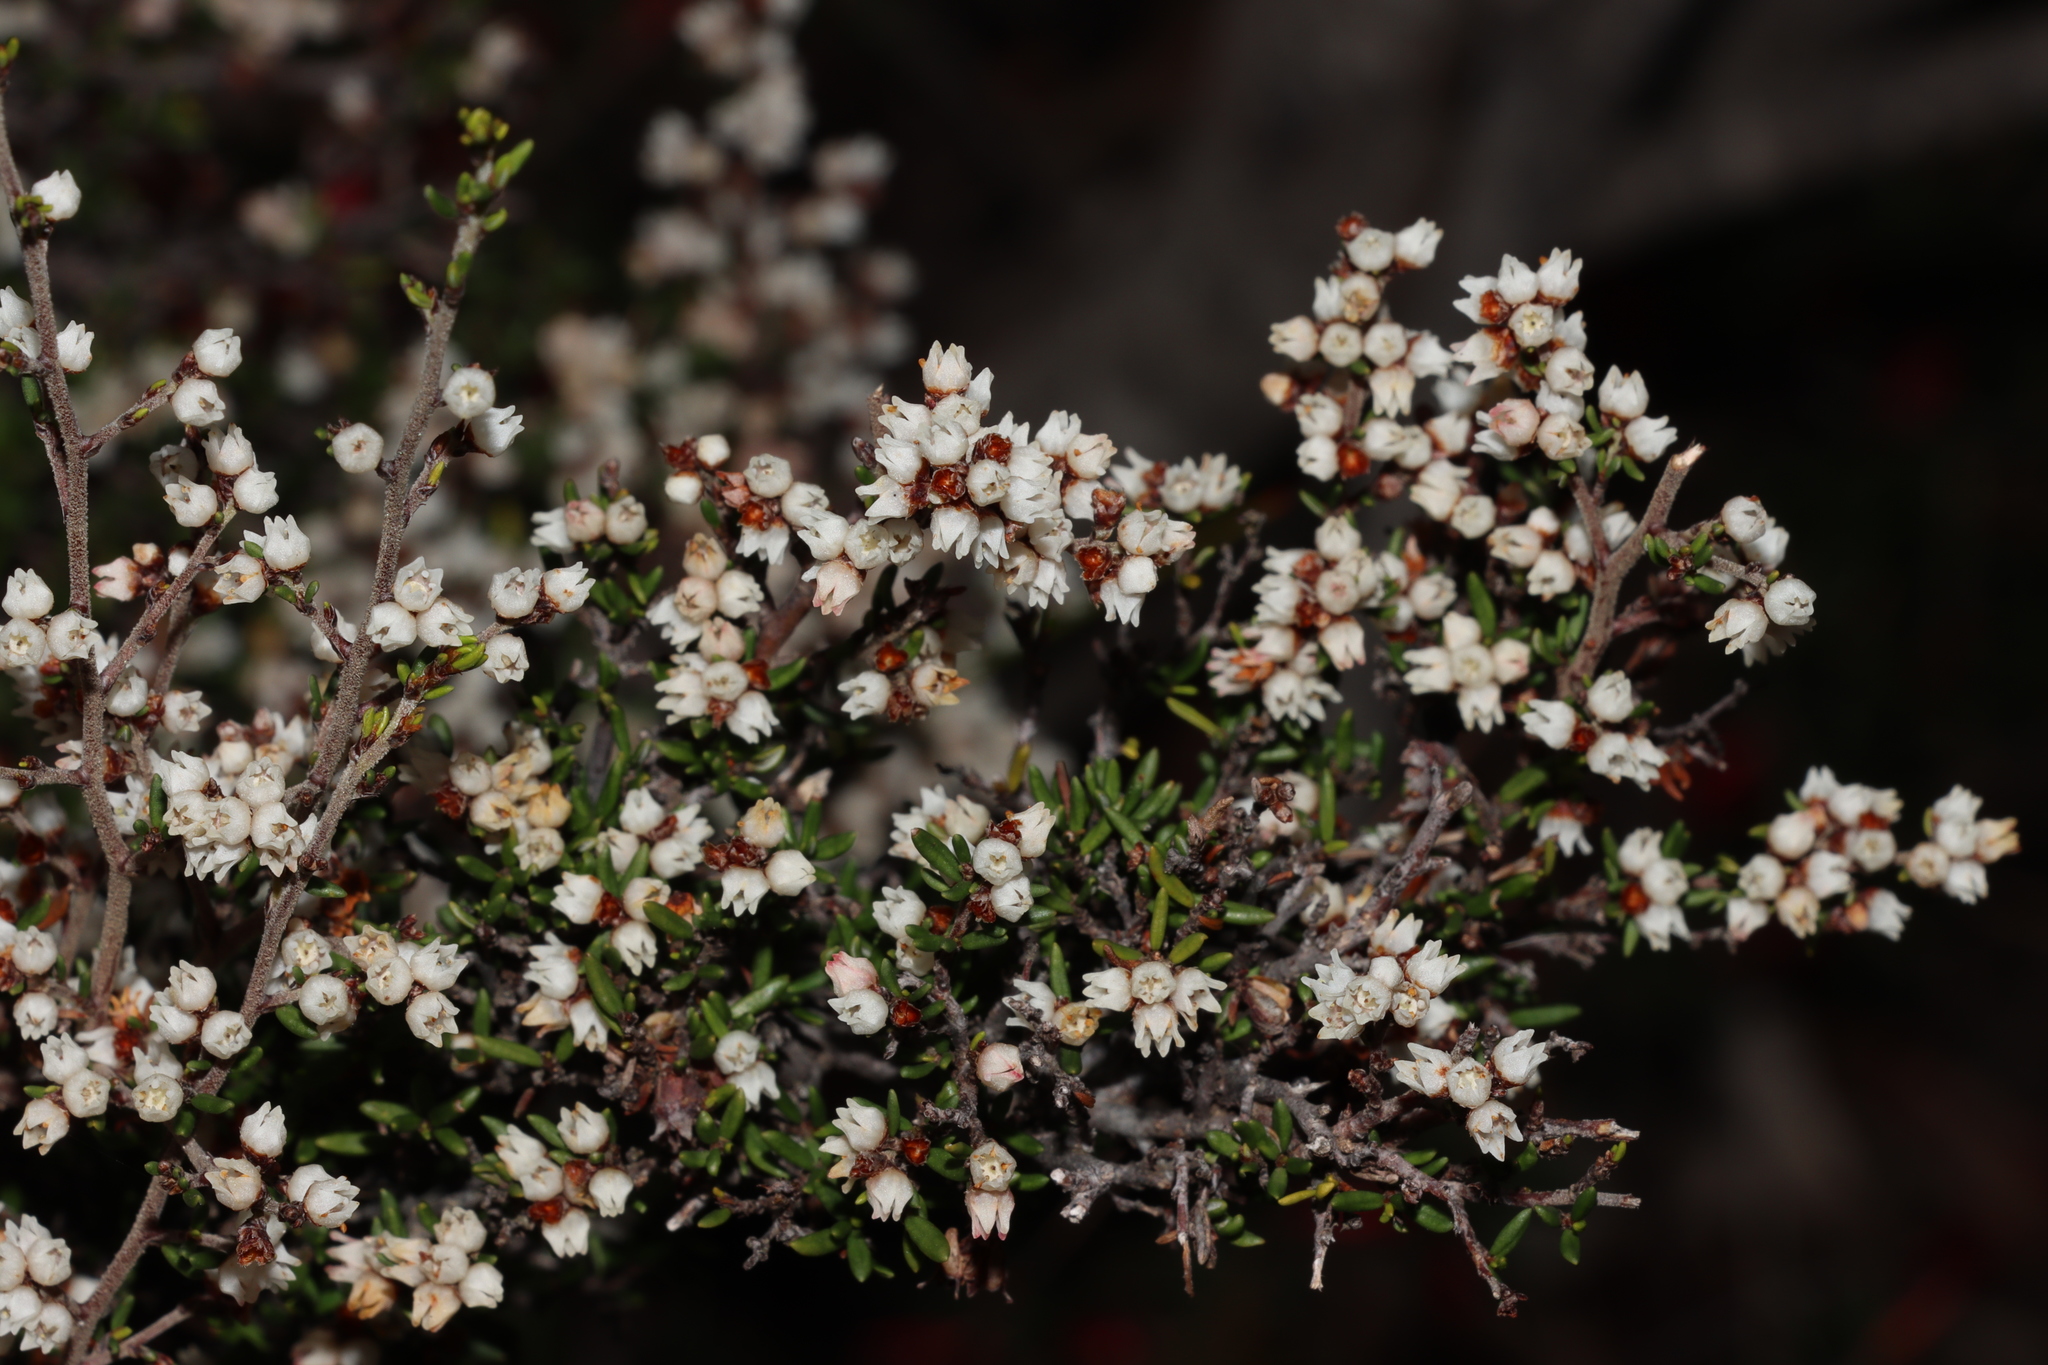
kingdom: Plantae
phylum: Tracheophyta
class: Magnoliopsida
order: Rosales
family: Rhamnaceae
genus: Cryptandra
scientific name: Cryptandra tomentosa
